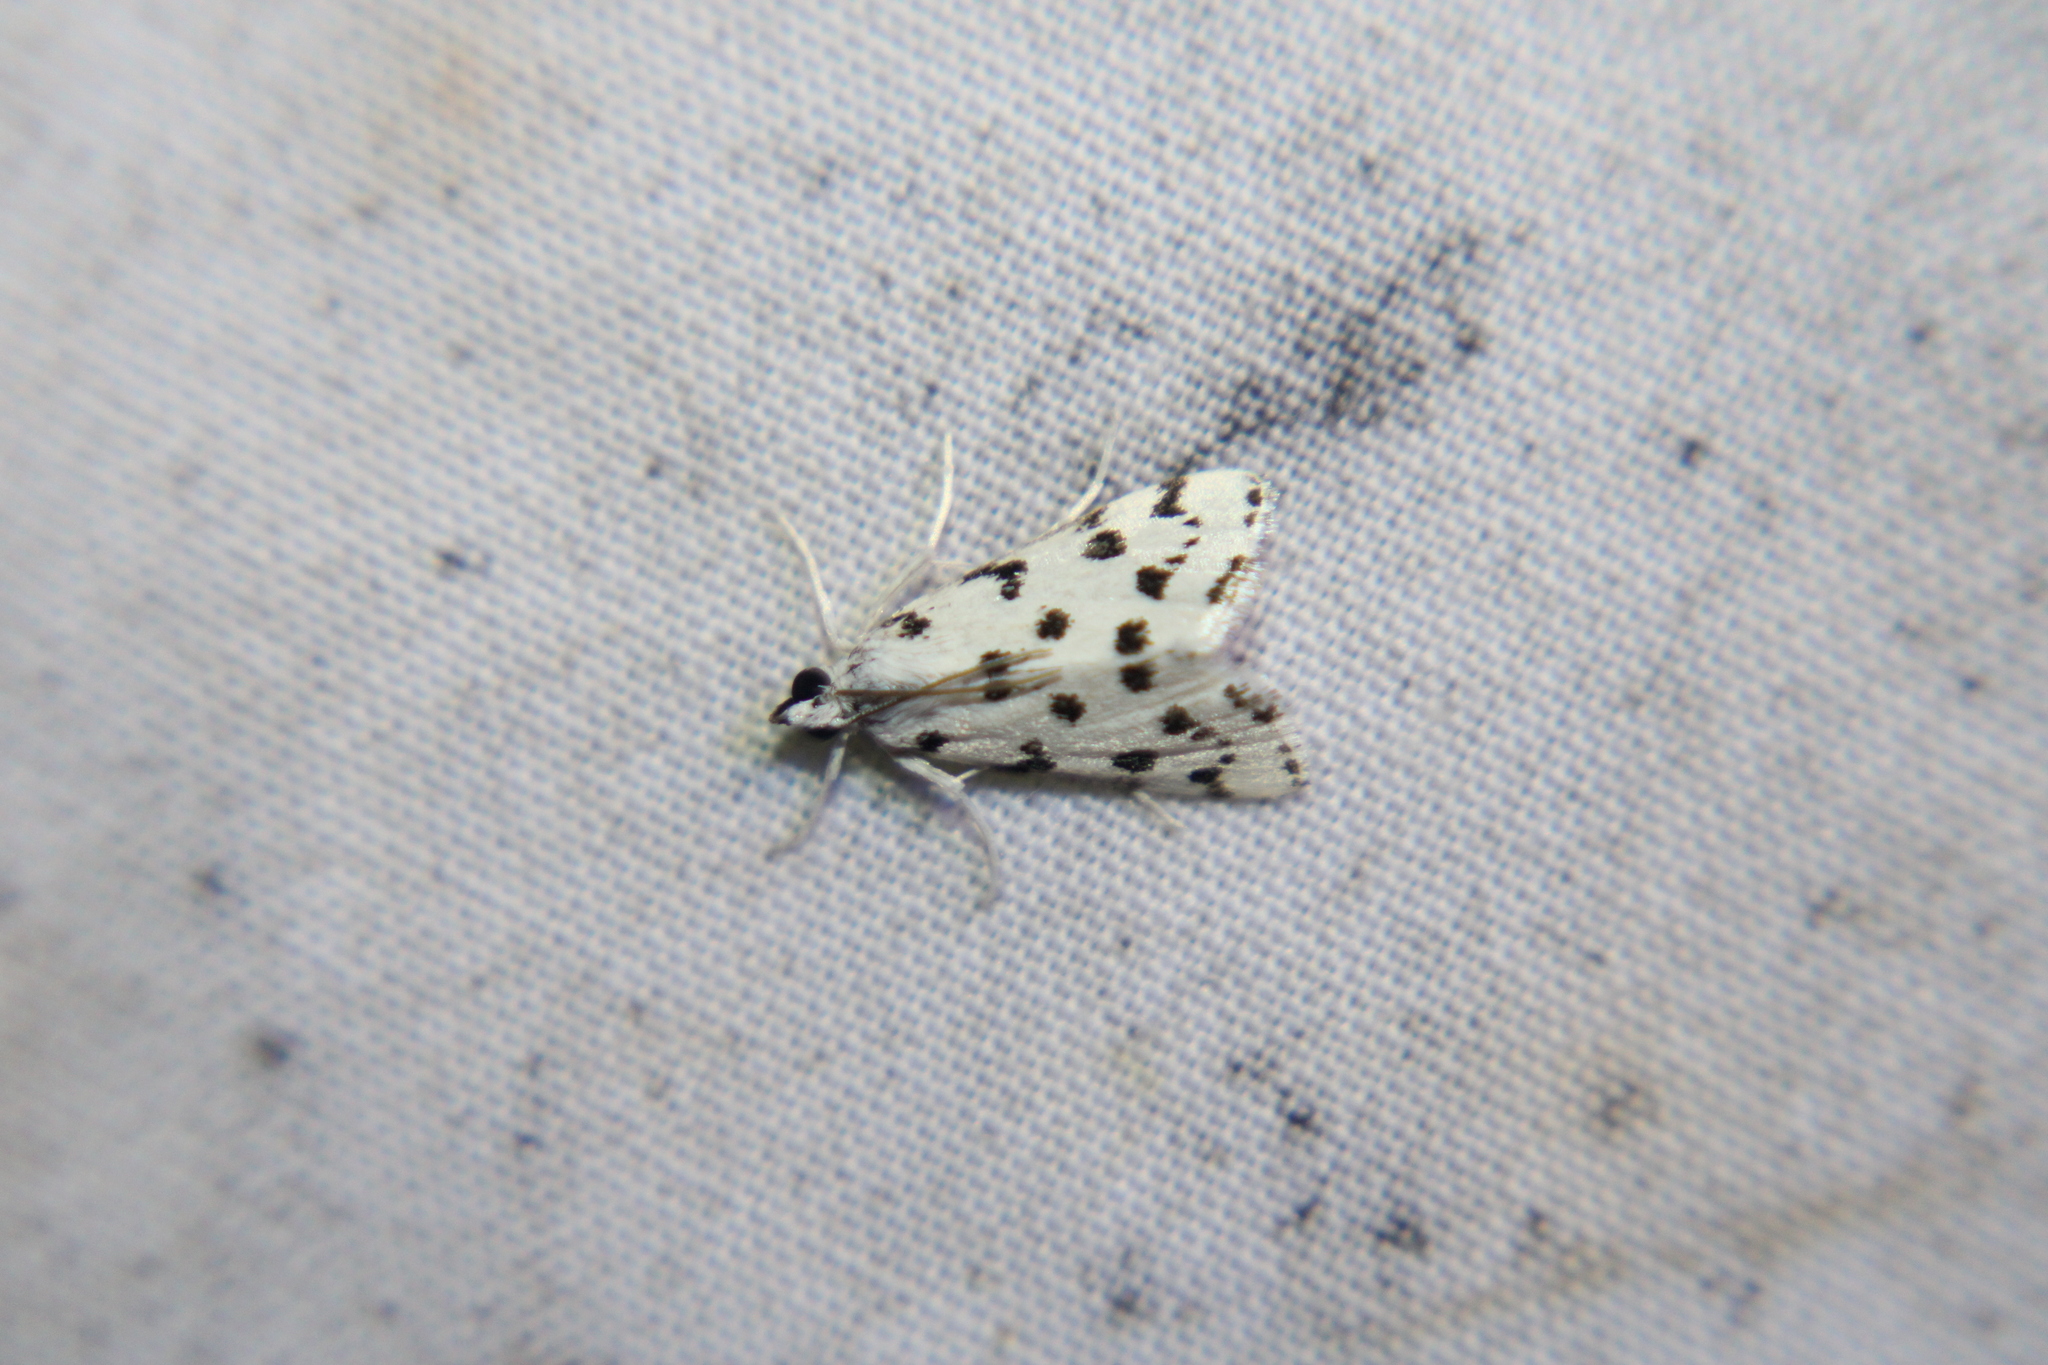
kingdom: Animalia
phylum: Arthropoda
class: Insecta
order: Lepidoptera
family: Crambidae
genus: Eustixia
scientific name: Eustixia pupula
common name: American cabbage pearl
